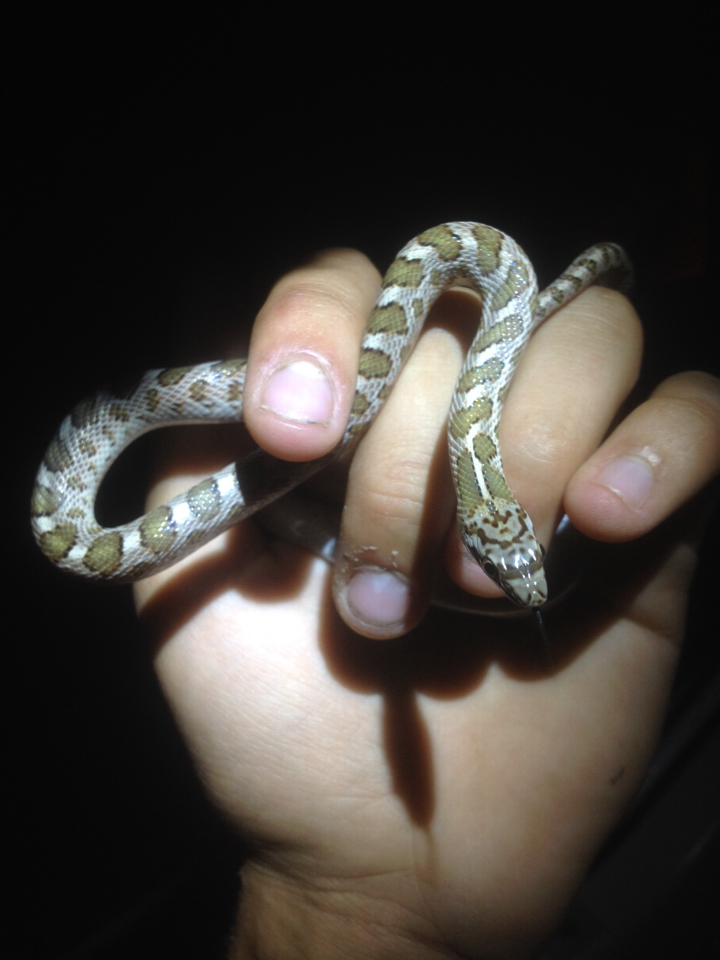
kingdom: Animalia
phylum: Chordata
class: Squamata
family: Colubridae
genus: Arizona
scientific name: Arizona elegans
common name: Glossy snake
